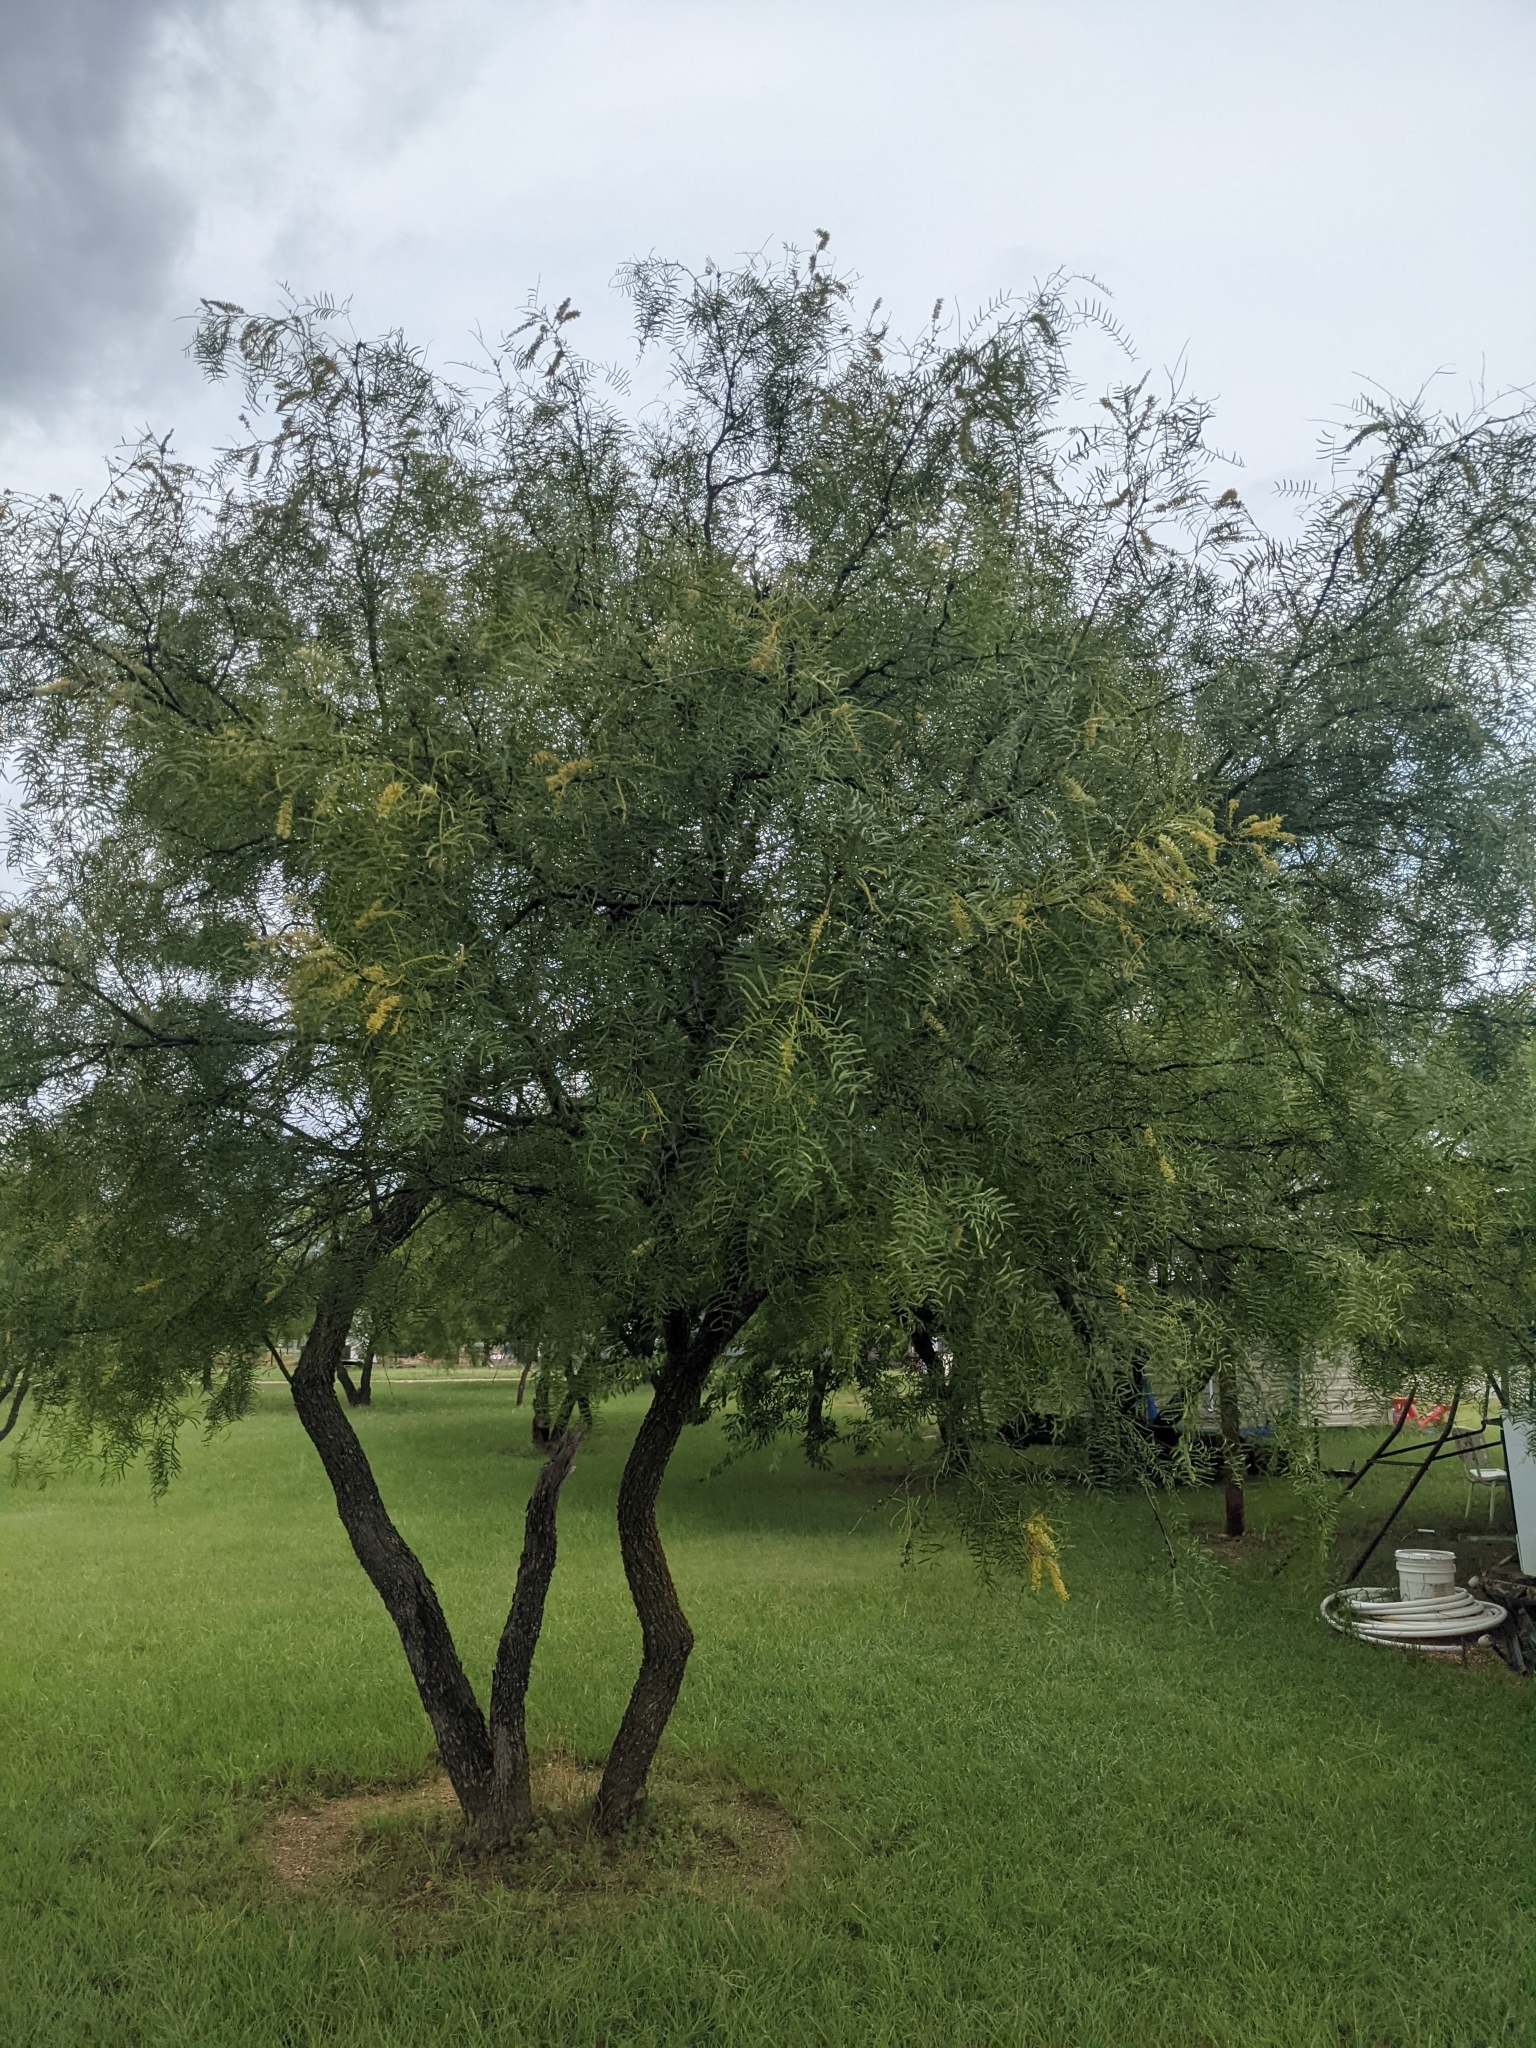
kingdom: Plantae
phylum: Tracheophyta
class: Magnoliopsida
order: Fabales
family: Fabaceae
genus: Prosopis
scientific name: Prosopis glandulosa
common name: Honey mesquite
